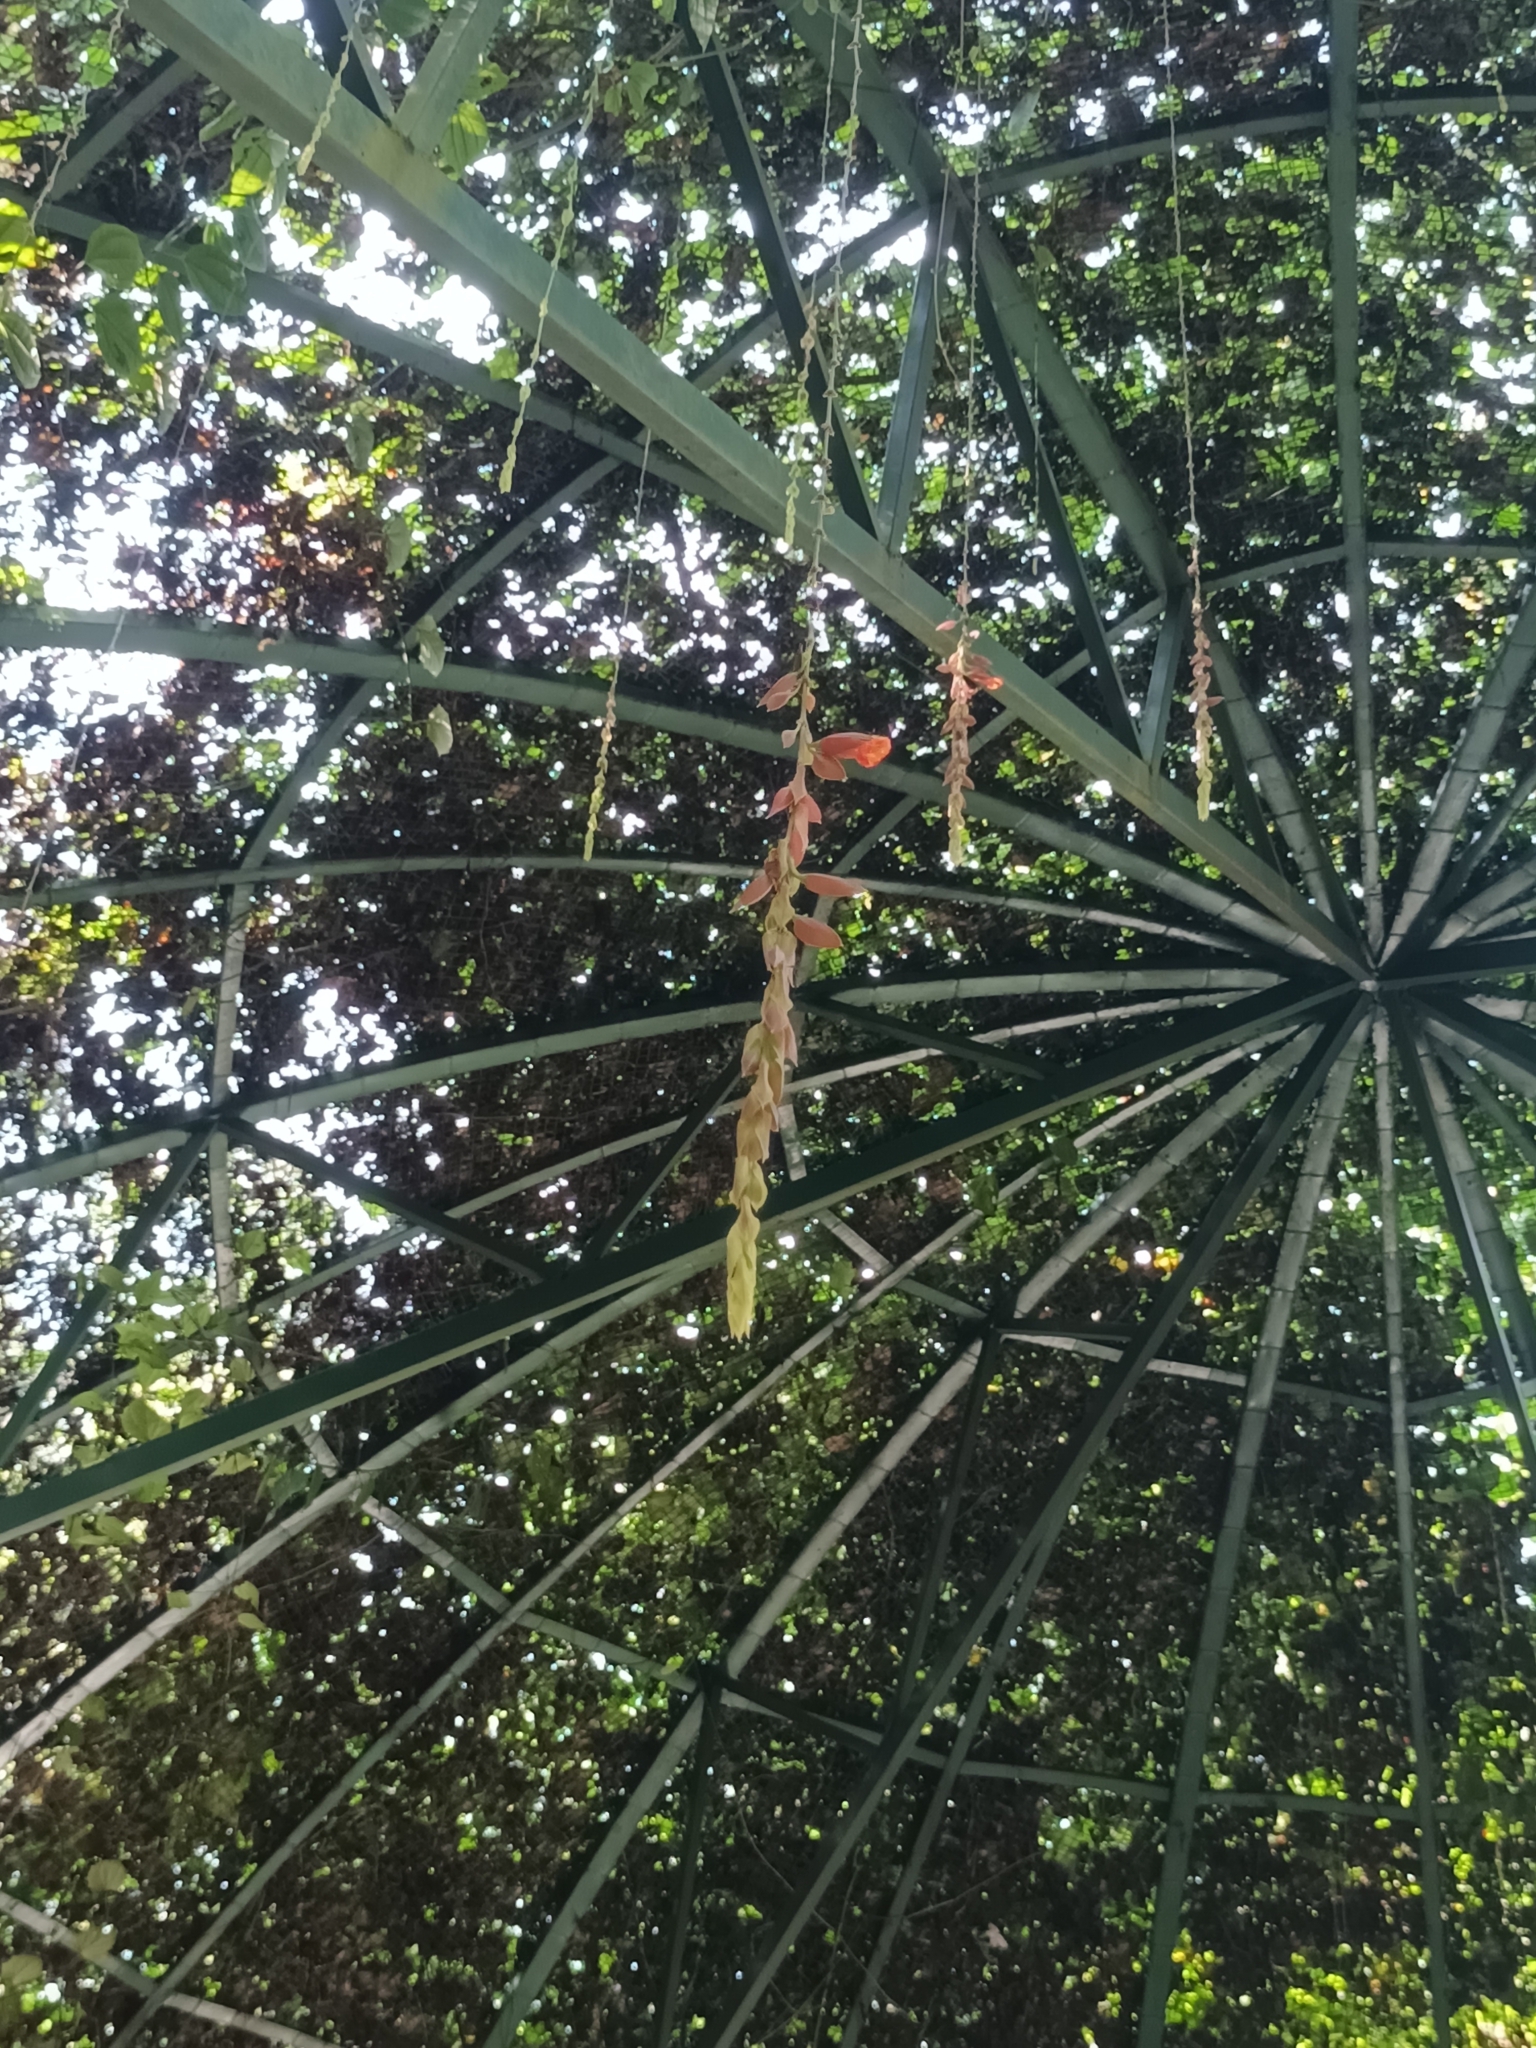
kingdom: Plantae
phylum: Tracheophyta
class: Magnoliopsida
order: Lamiales
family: Acanthaceae
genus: Thunbergia
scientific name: Thunbergia coccinea
